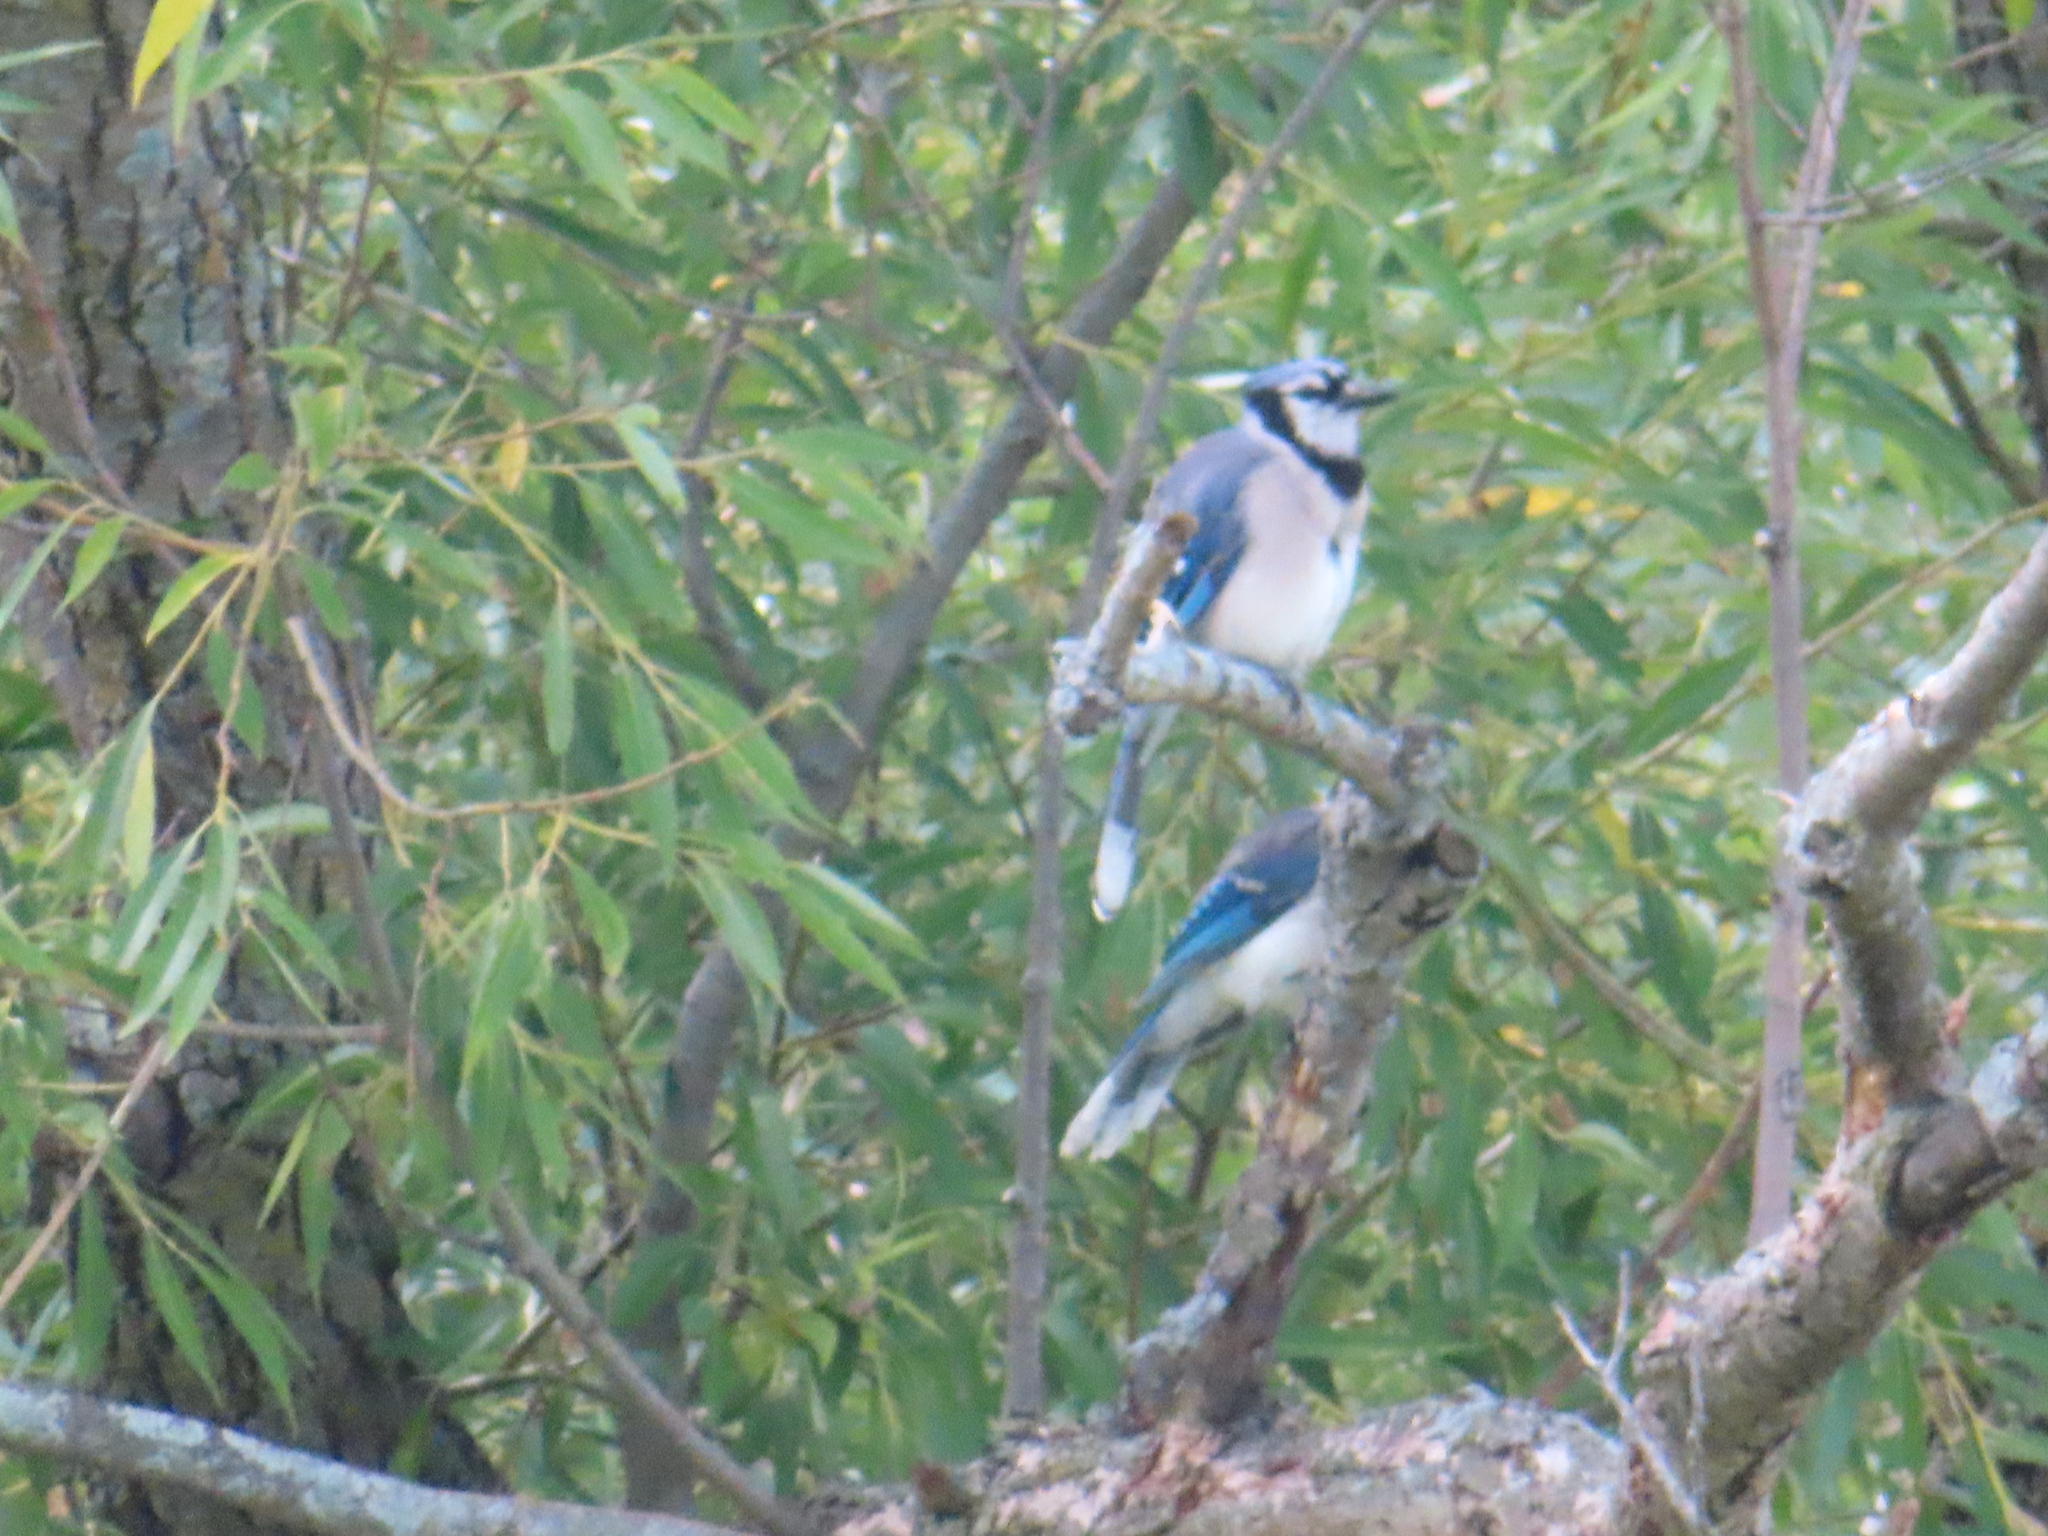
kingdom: Animalia
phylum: Chordata
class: Aves
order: Passeriformes
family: Corvidae
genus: Cyanocitta
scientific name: Cyanocitta cristata
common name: Blue jay
